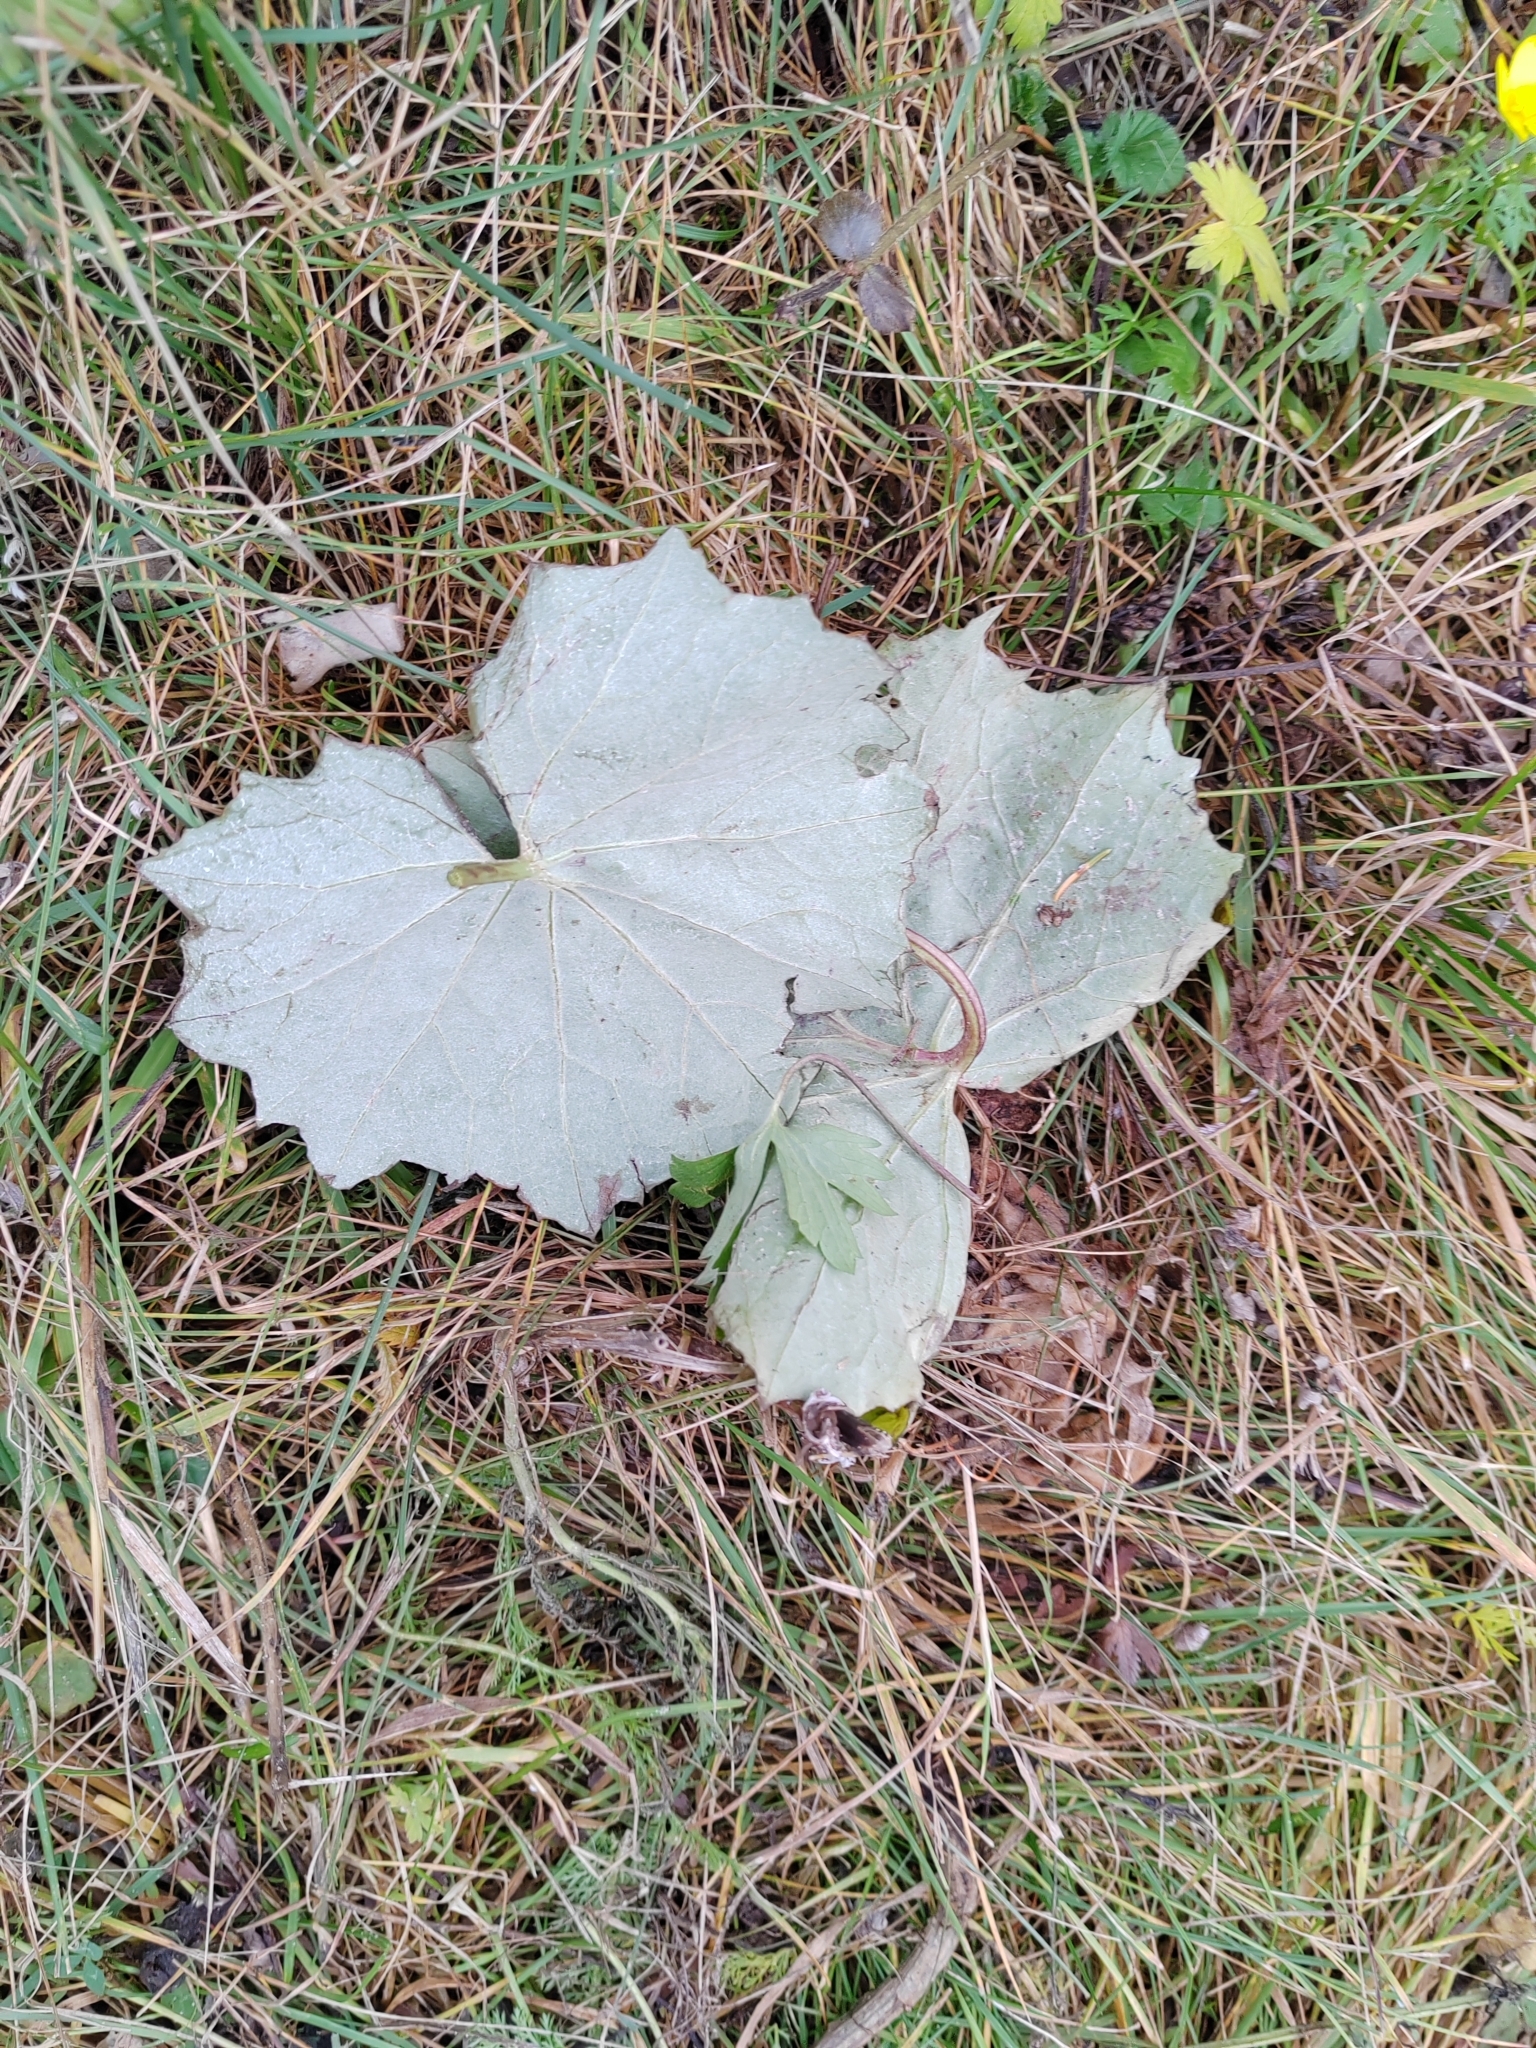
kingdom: Plantae
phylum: Tracheophyta
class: Magnoliopsida
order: Asterales
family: Asteraceae
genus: Tussilago
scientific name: Tussilago farfara
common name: Coltsfoot
